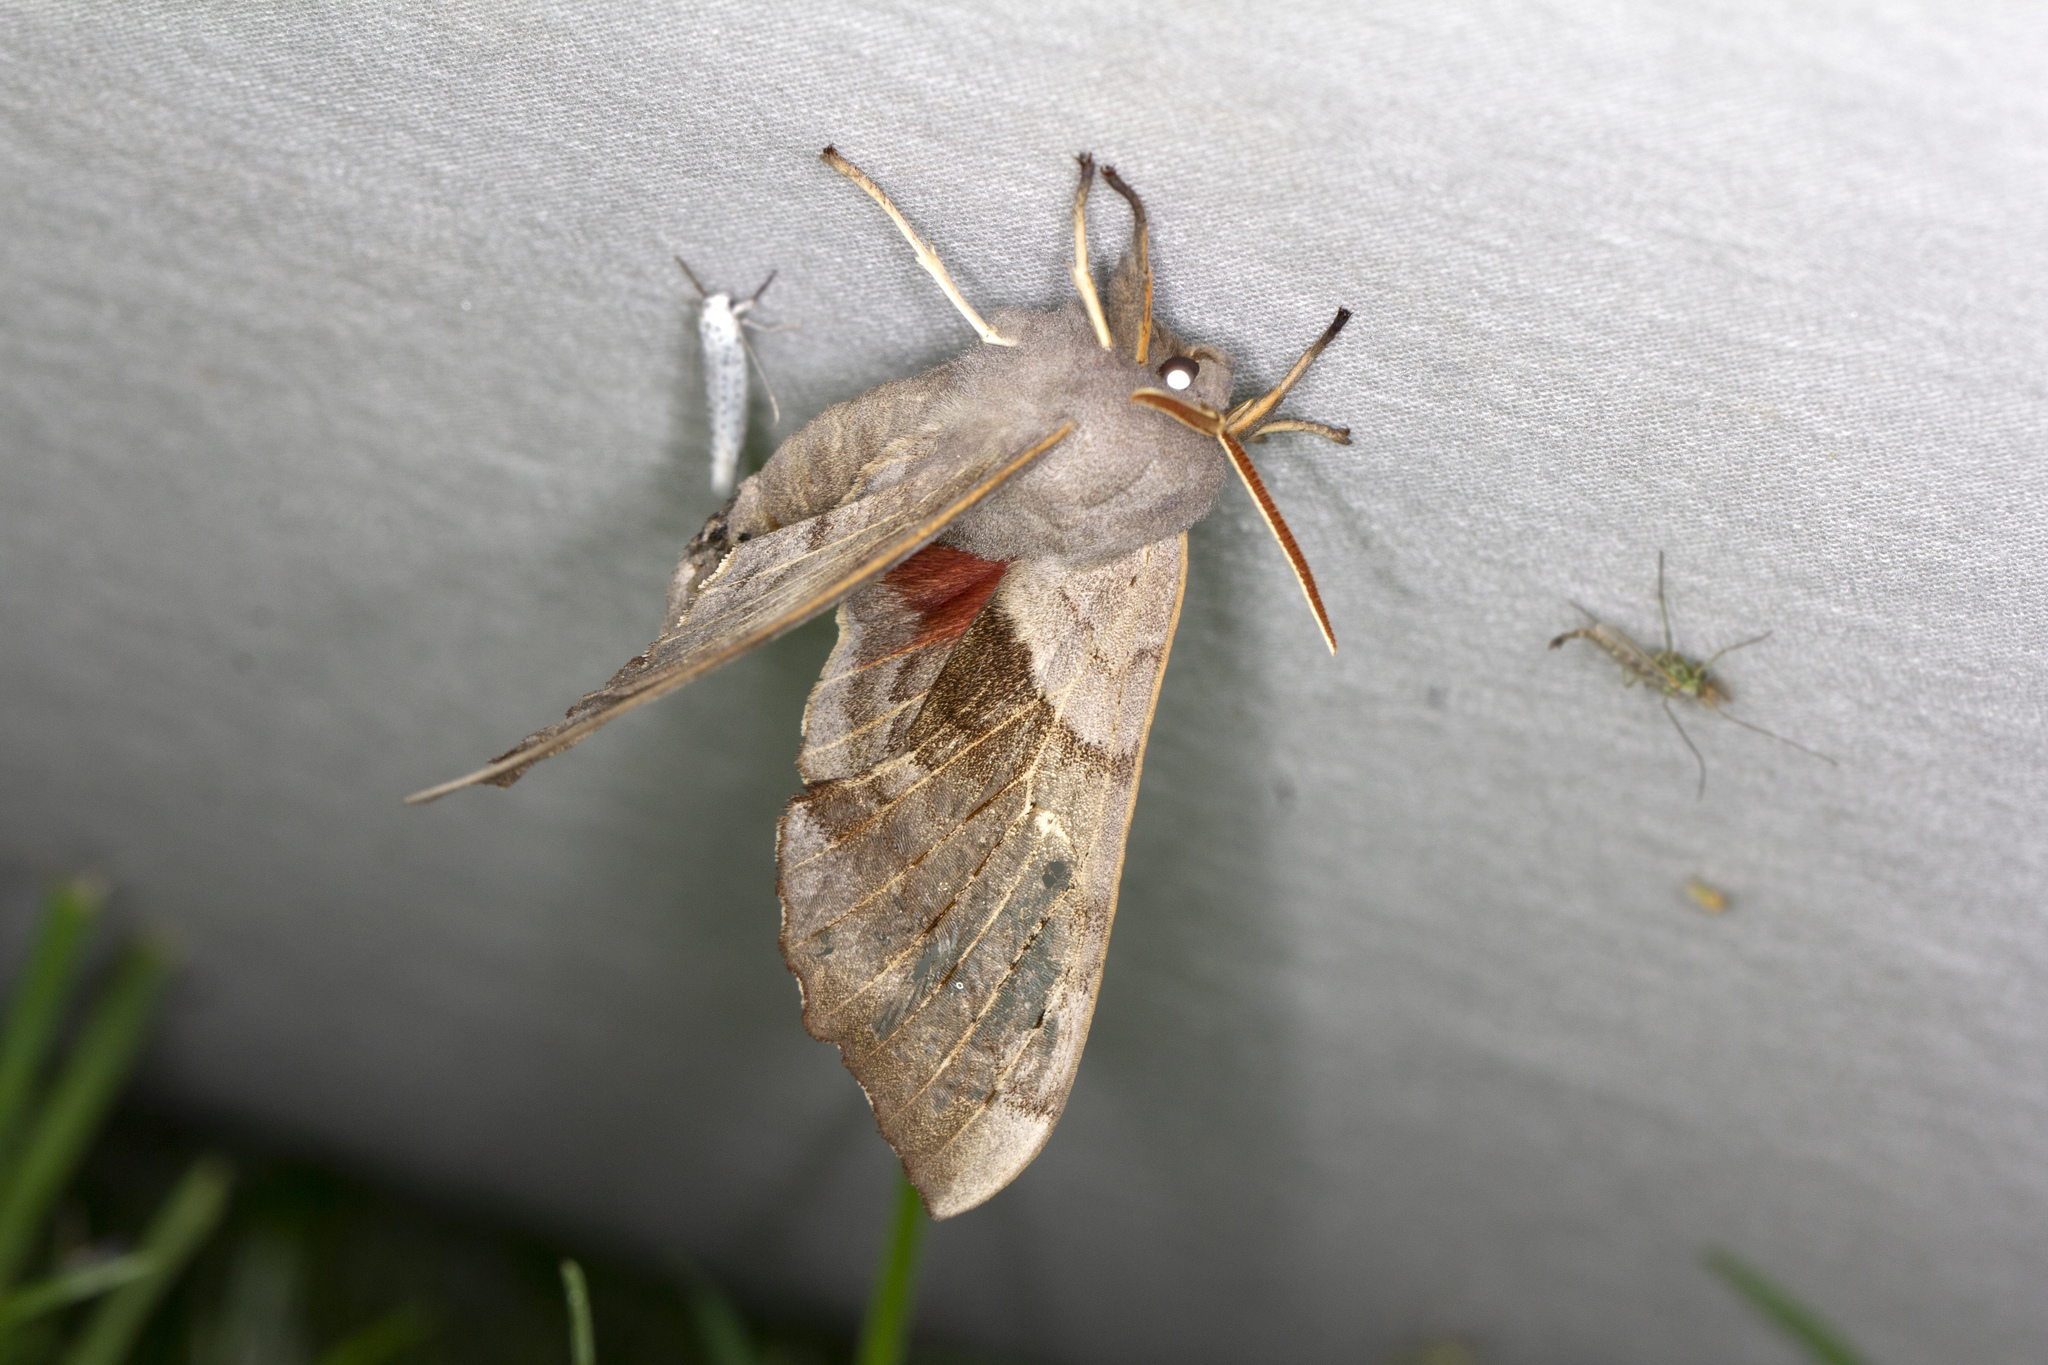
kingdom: Animalia
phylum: Arthropoda
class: Insecta
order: Lepidoptera
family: Sphingidae
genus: Laothoe
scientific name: Laothoe populi
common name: Poplar hawk-moth
